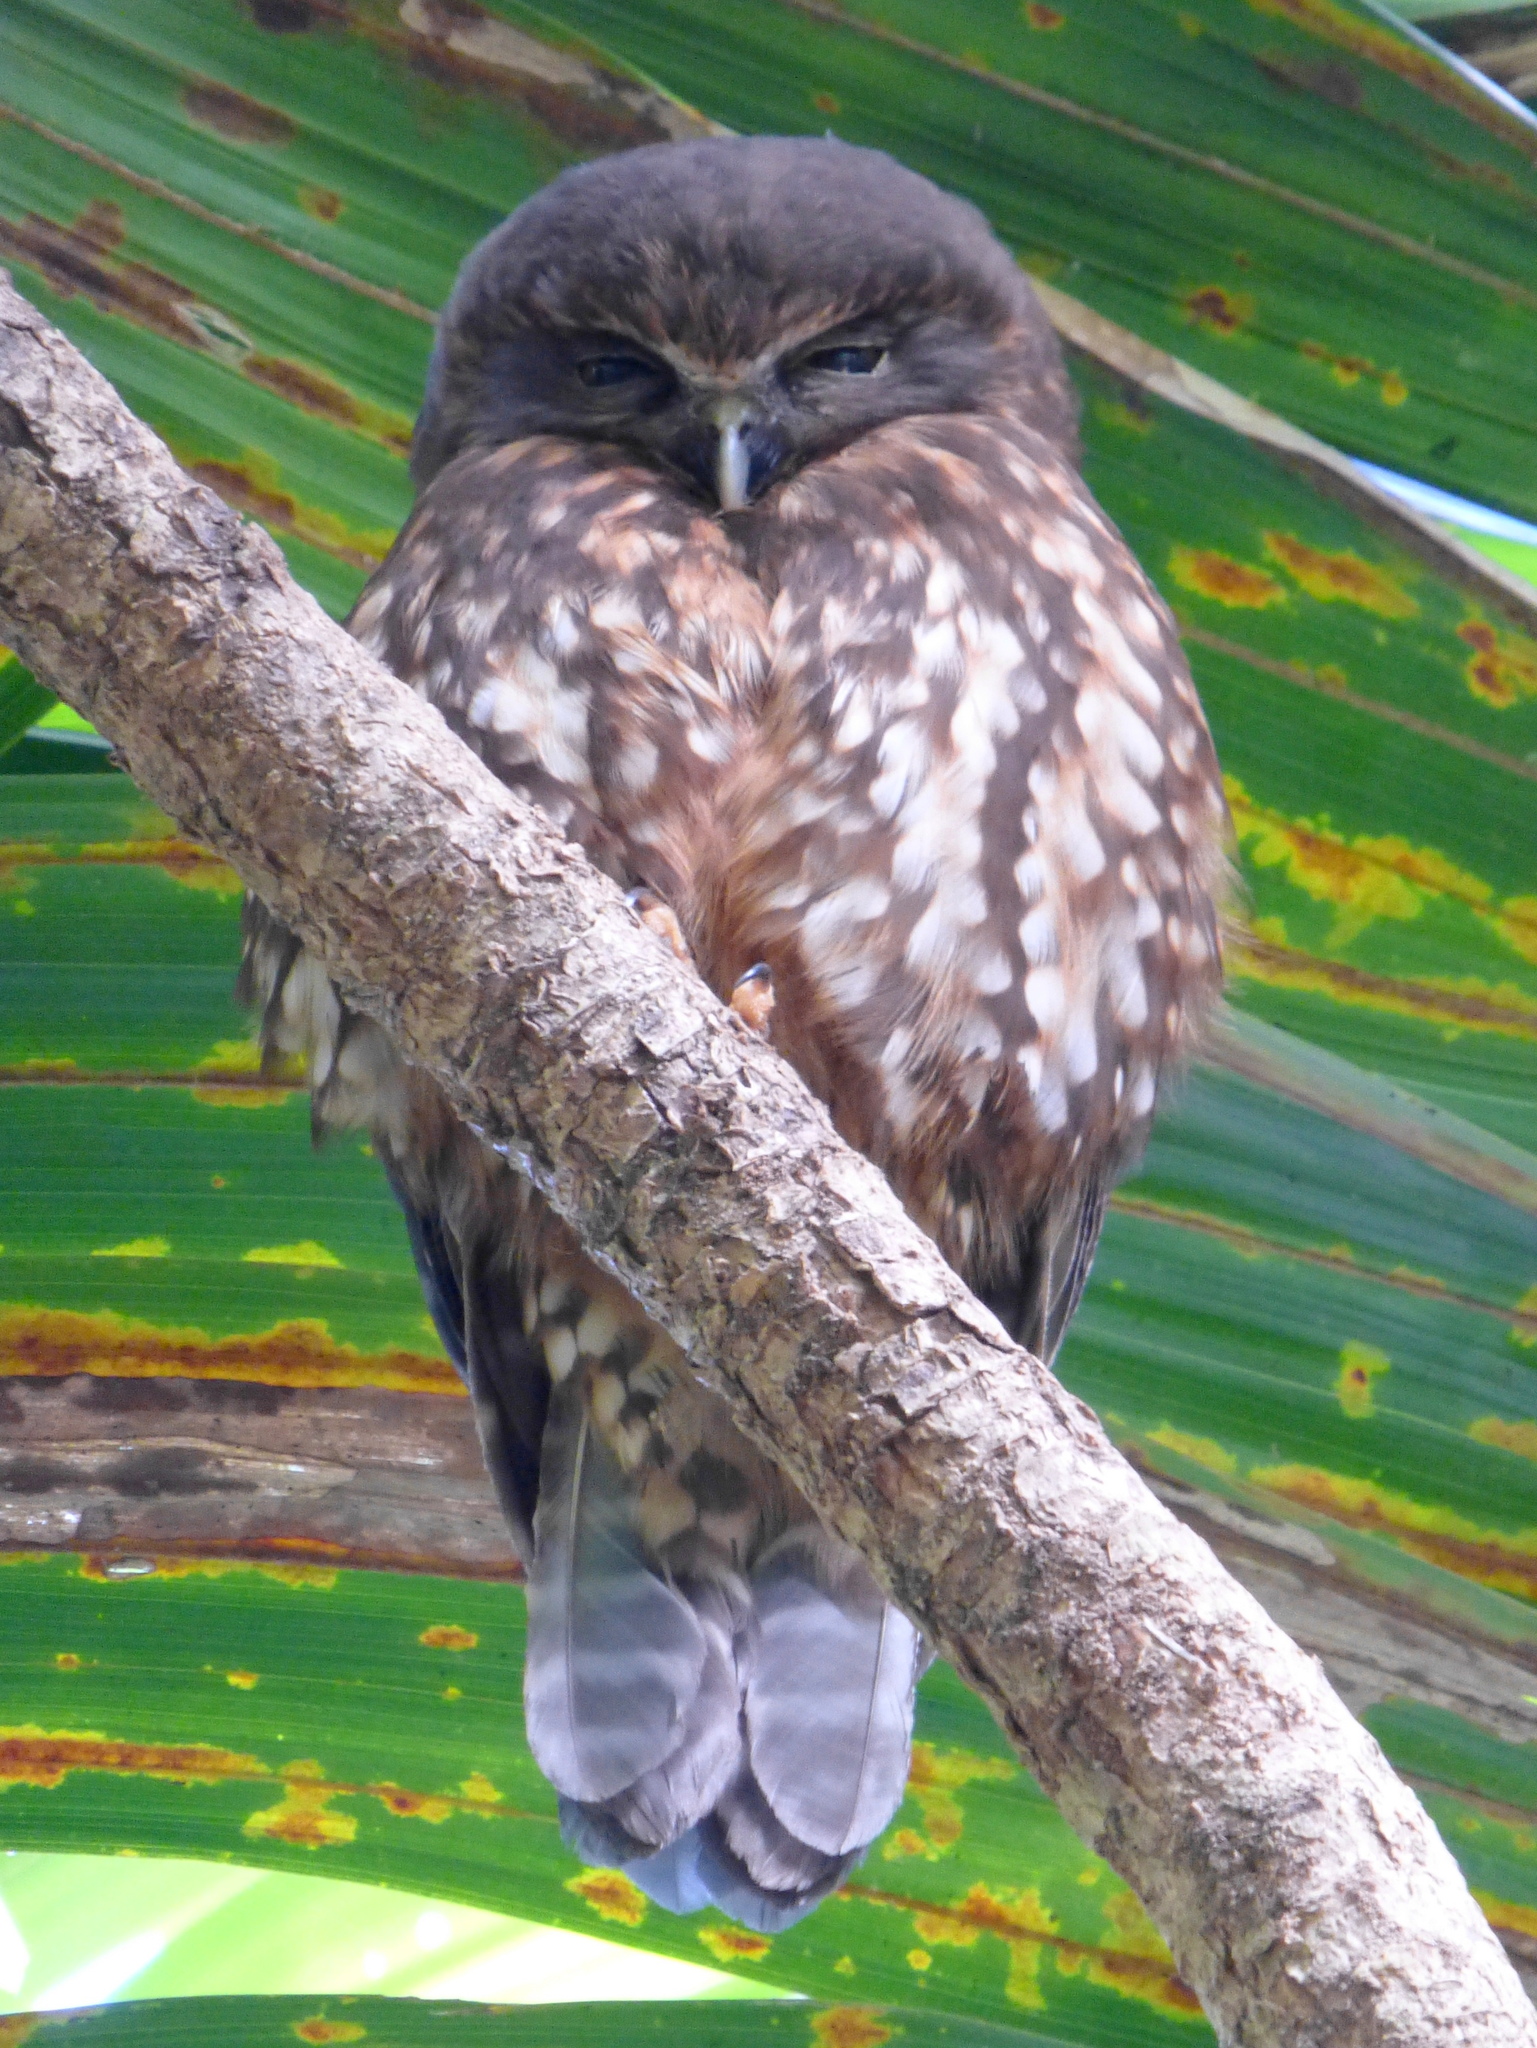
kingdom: Animalia
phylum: Chordata
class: Aves
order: Strigiformes
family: Strigidae
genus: Ninox
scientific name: Ninox novaeseelandiae
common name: Morepork
